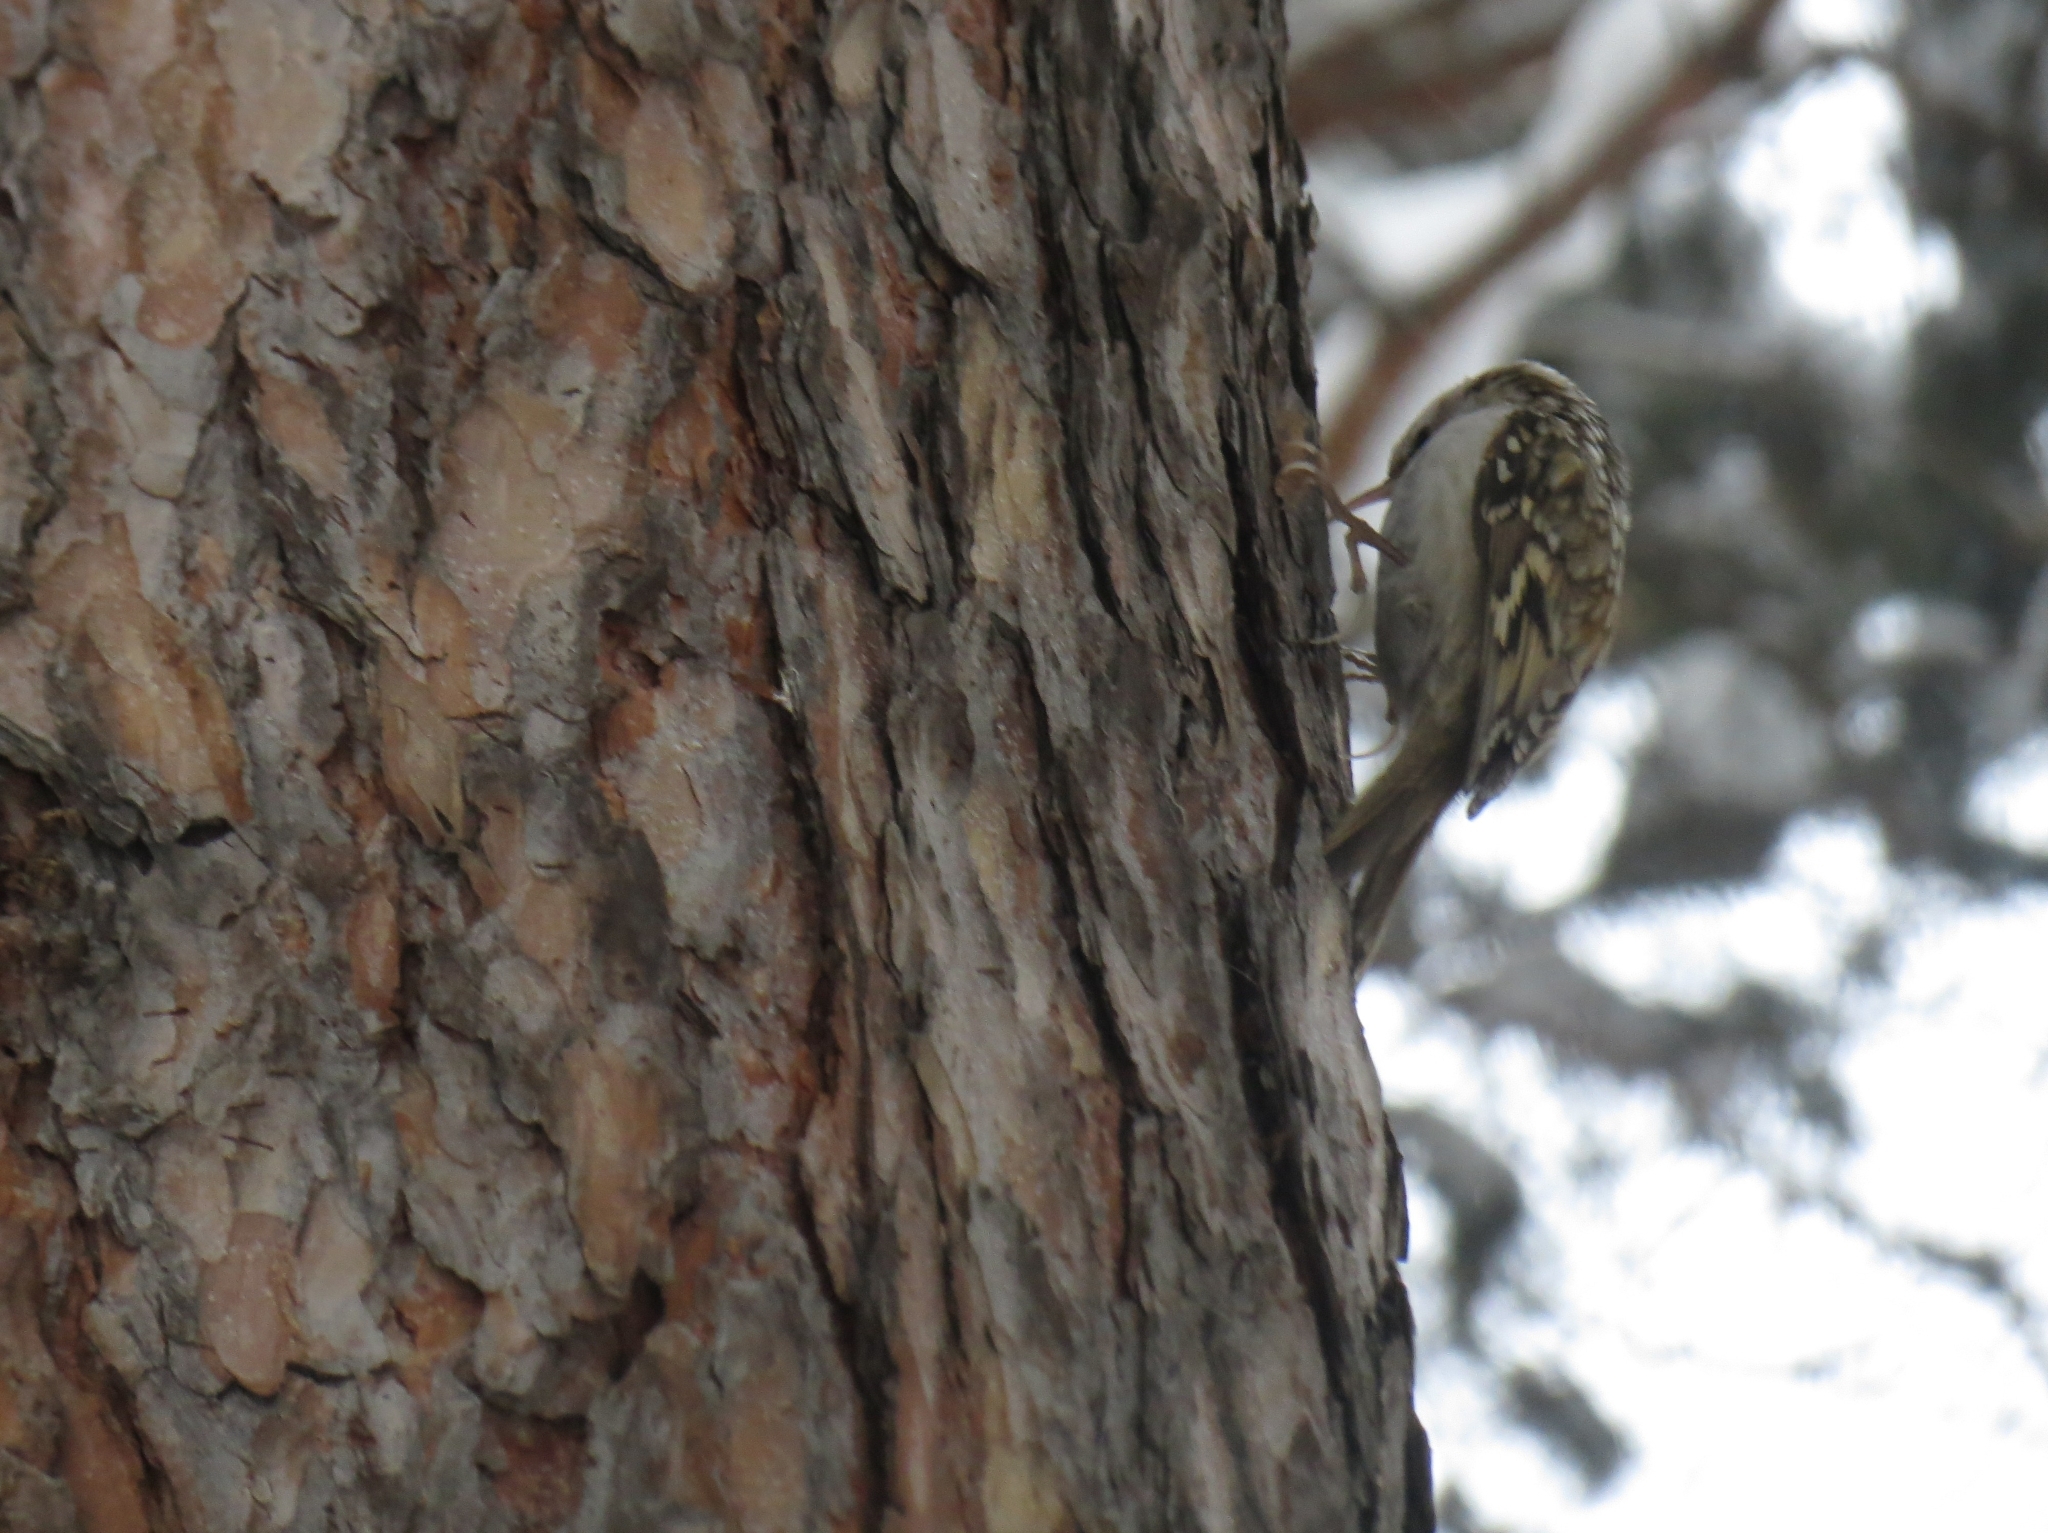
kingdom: Animalia
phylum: Chordata
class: Aves
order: Passeriformes
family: Certhiidae
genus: Certhia
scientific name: Certhia familiaris
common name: Eurasian treecreeper
